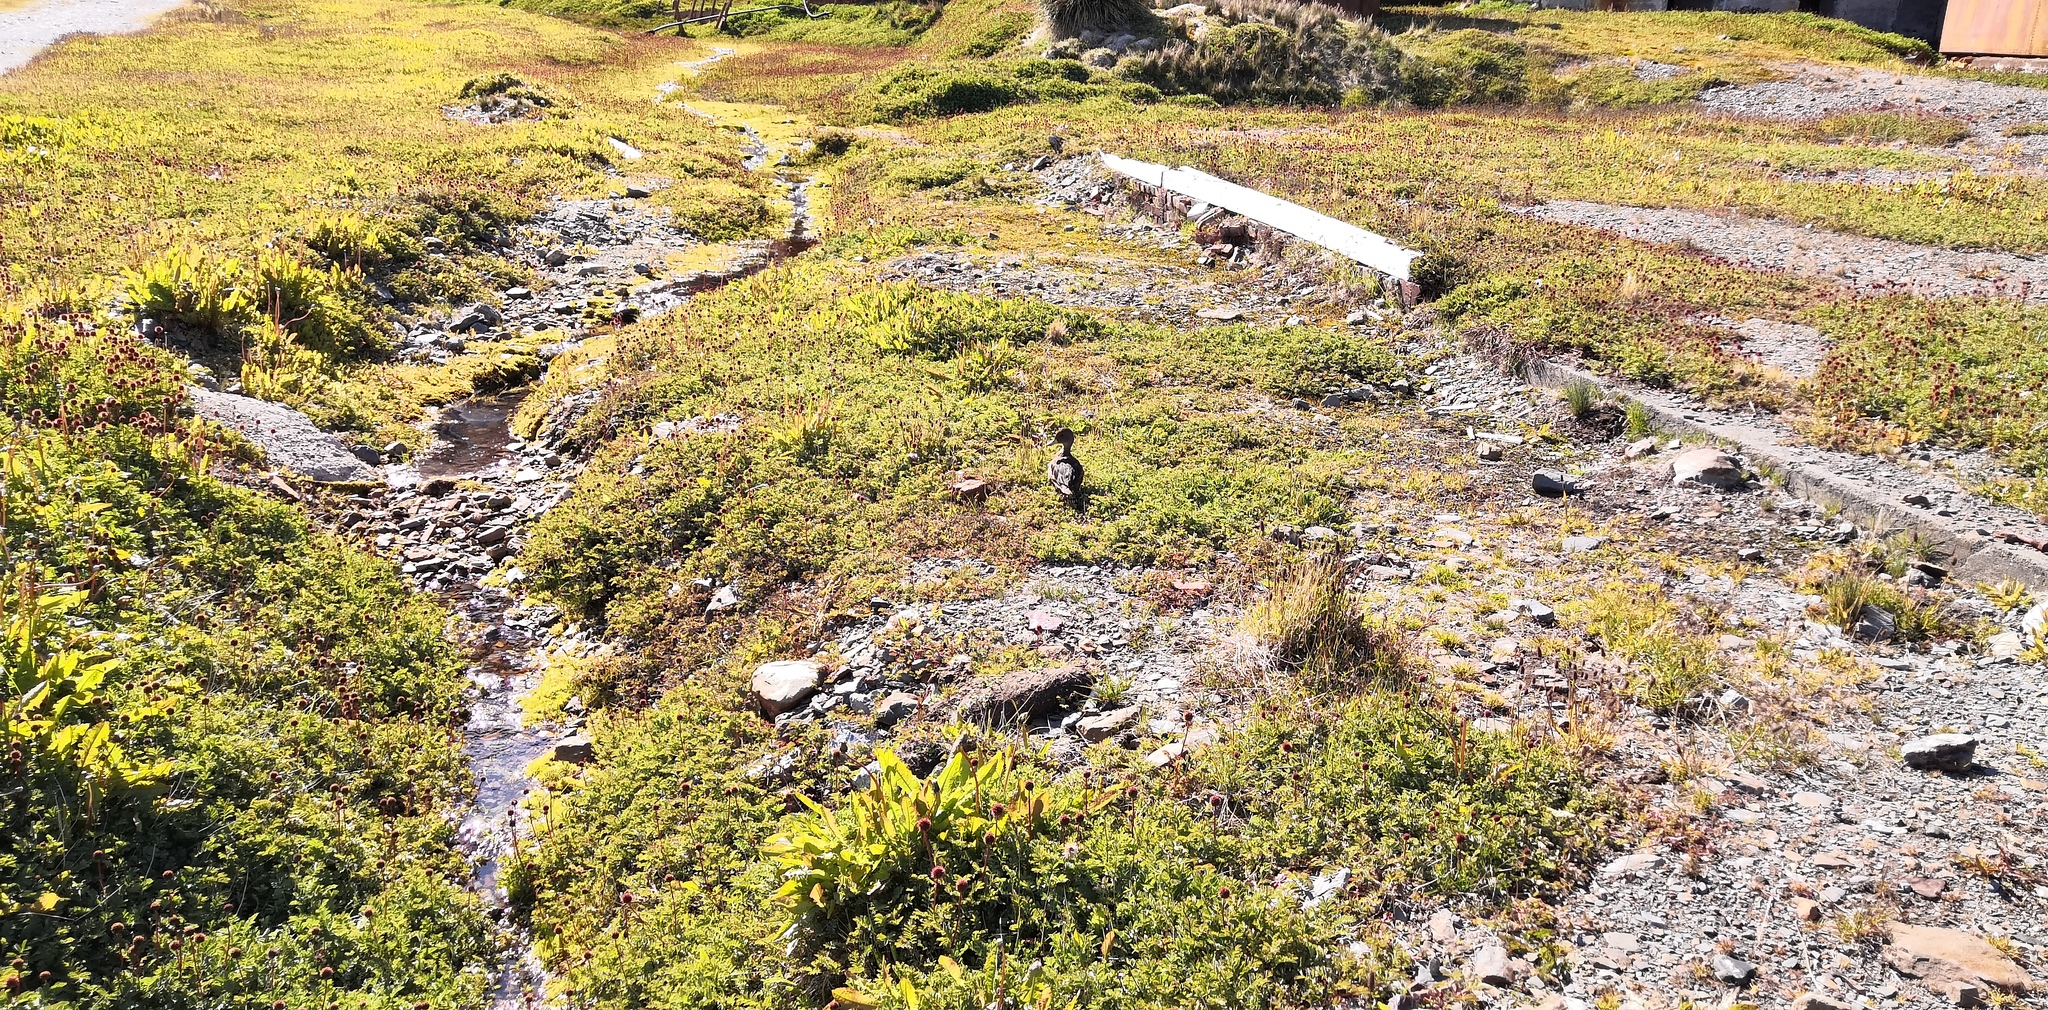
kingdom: Animalia
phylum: Chordata
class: Aves
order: Anseriformes
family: Anatidae
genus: Anas
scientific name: Anas georgica
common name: Yellow-billed pintail
